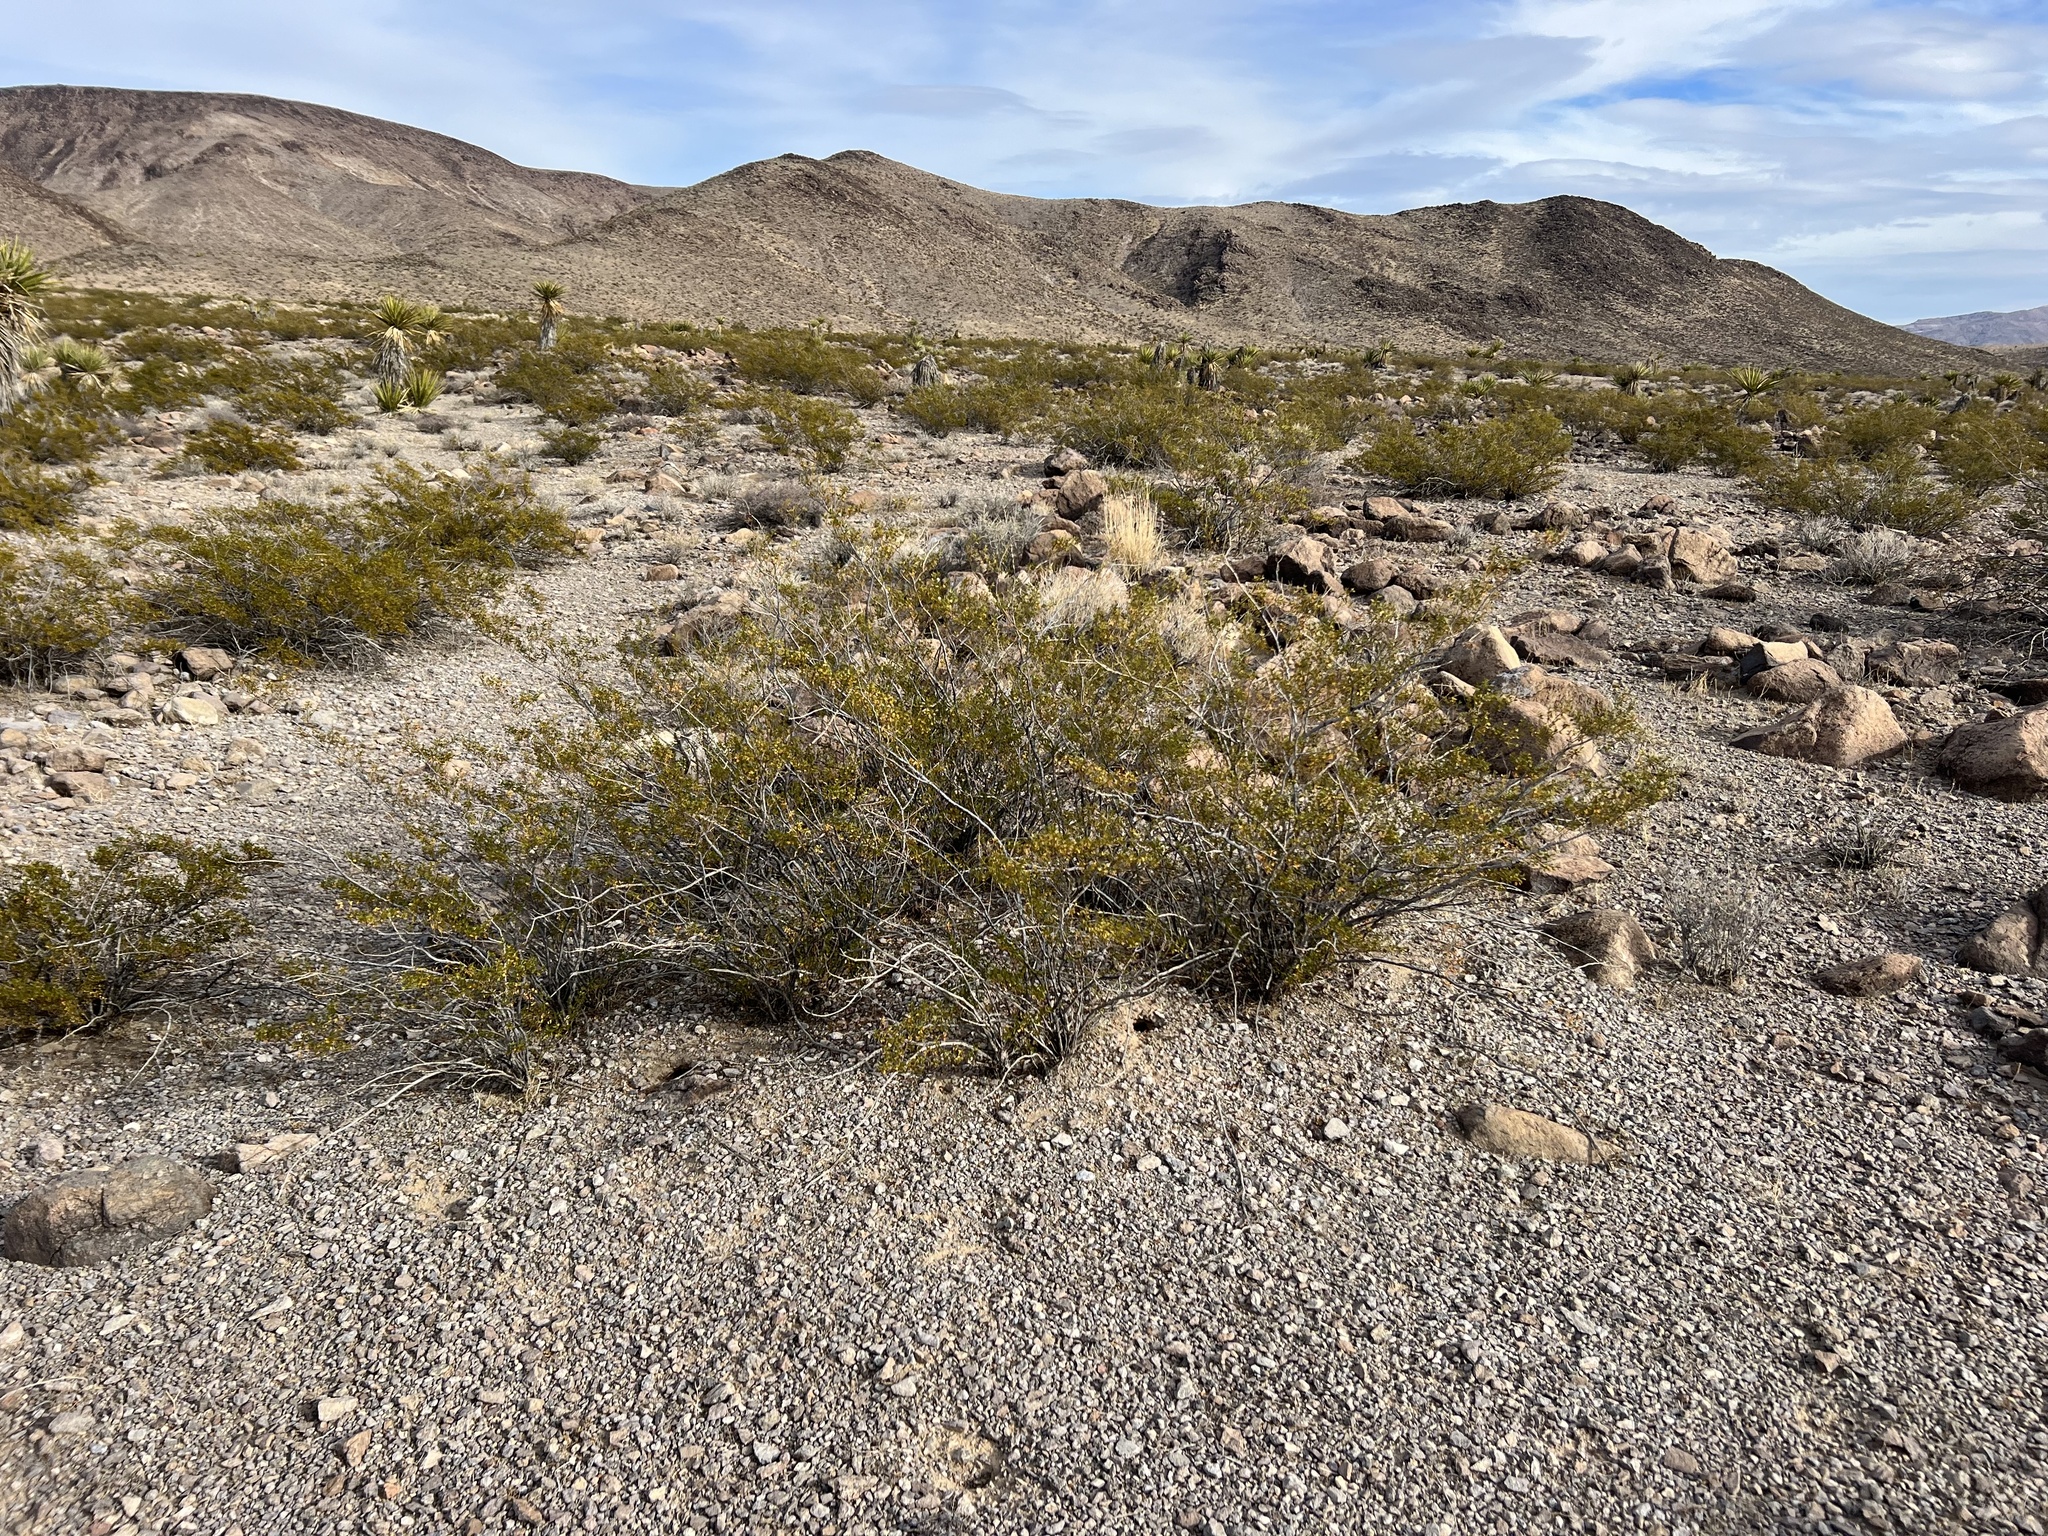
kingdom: Plantae
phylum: Tracheophyta
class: Magnoliopsida
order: Zygophyllales
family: Zygophyllaceae
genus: Larrea
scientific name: Larrea tridentata
